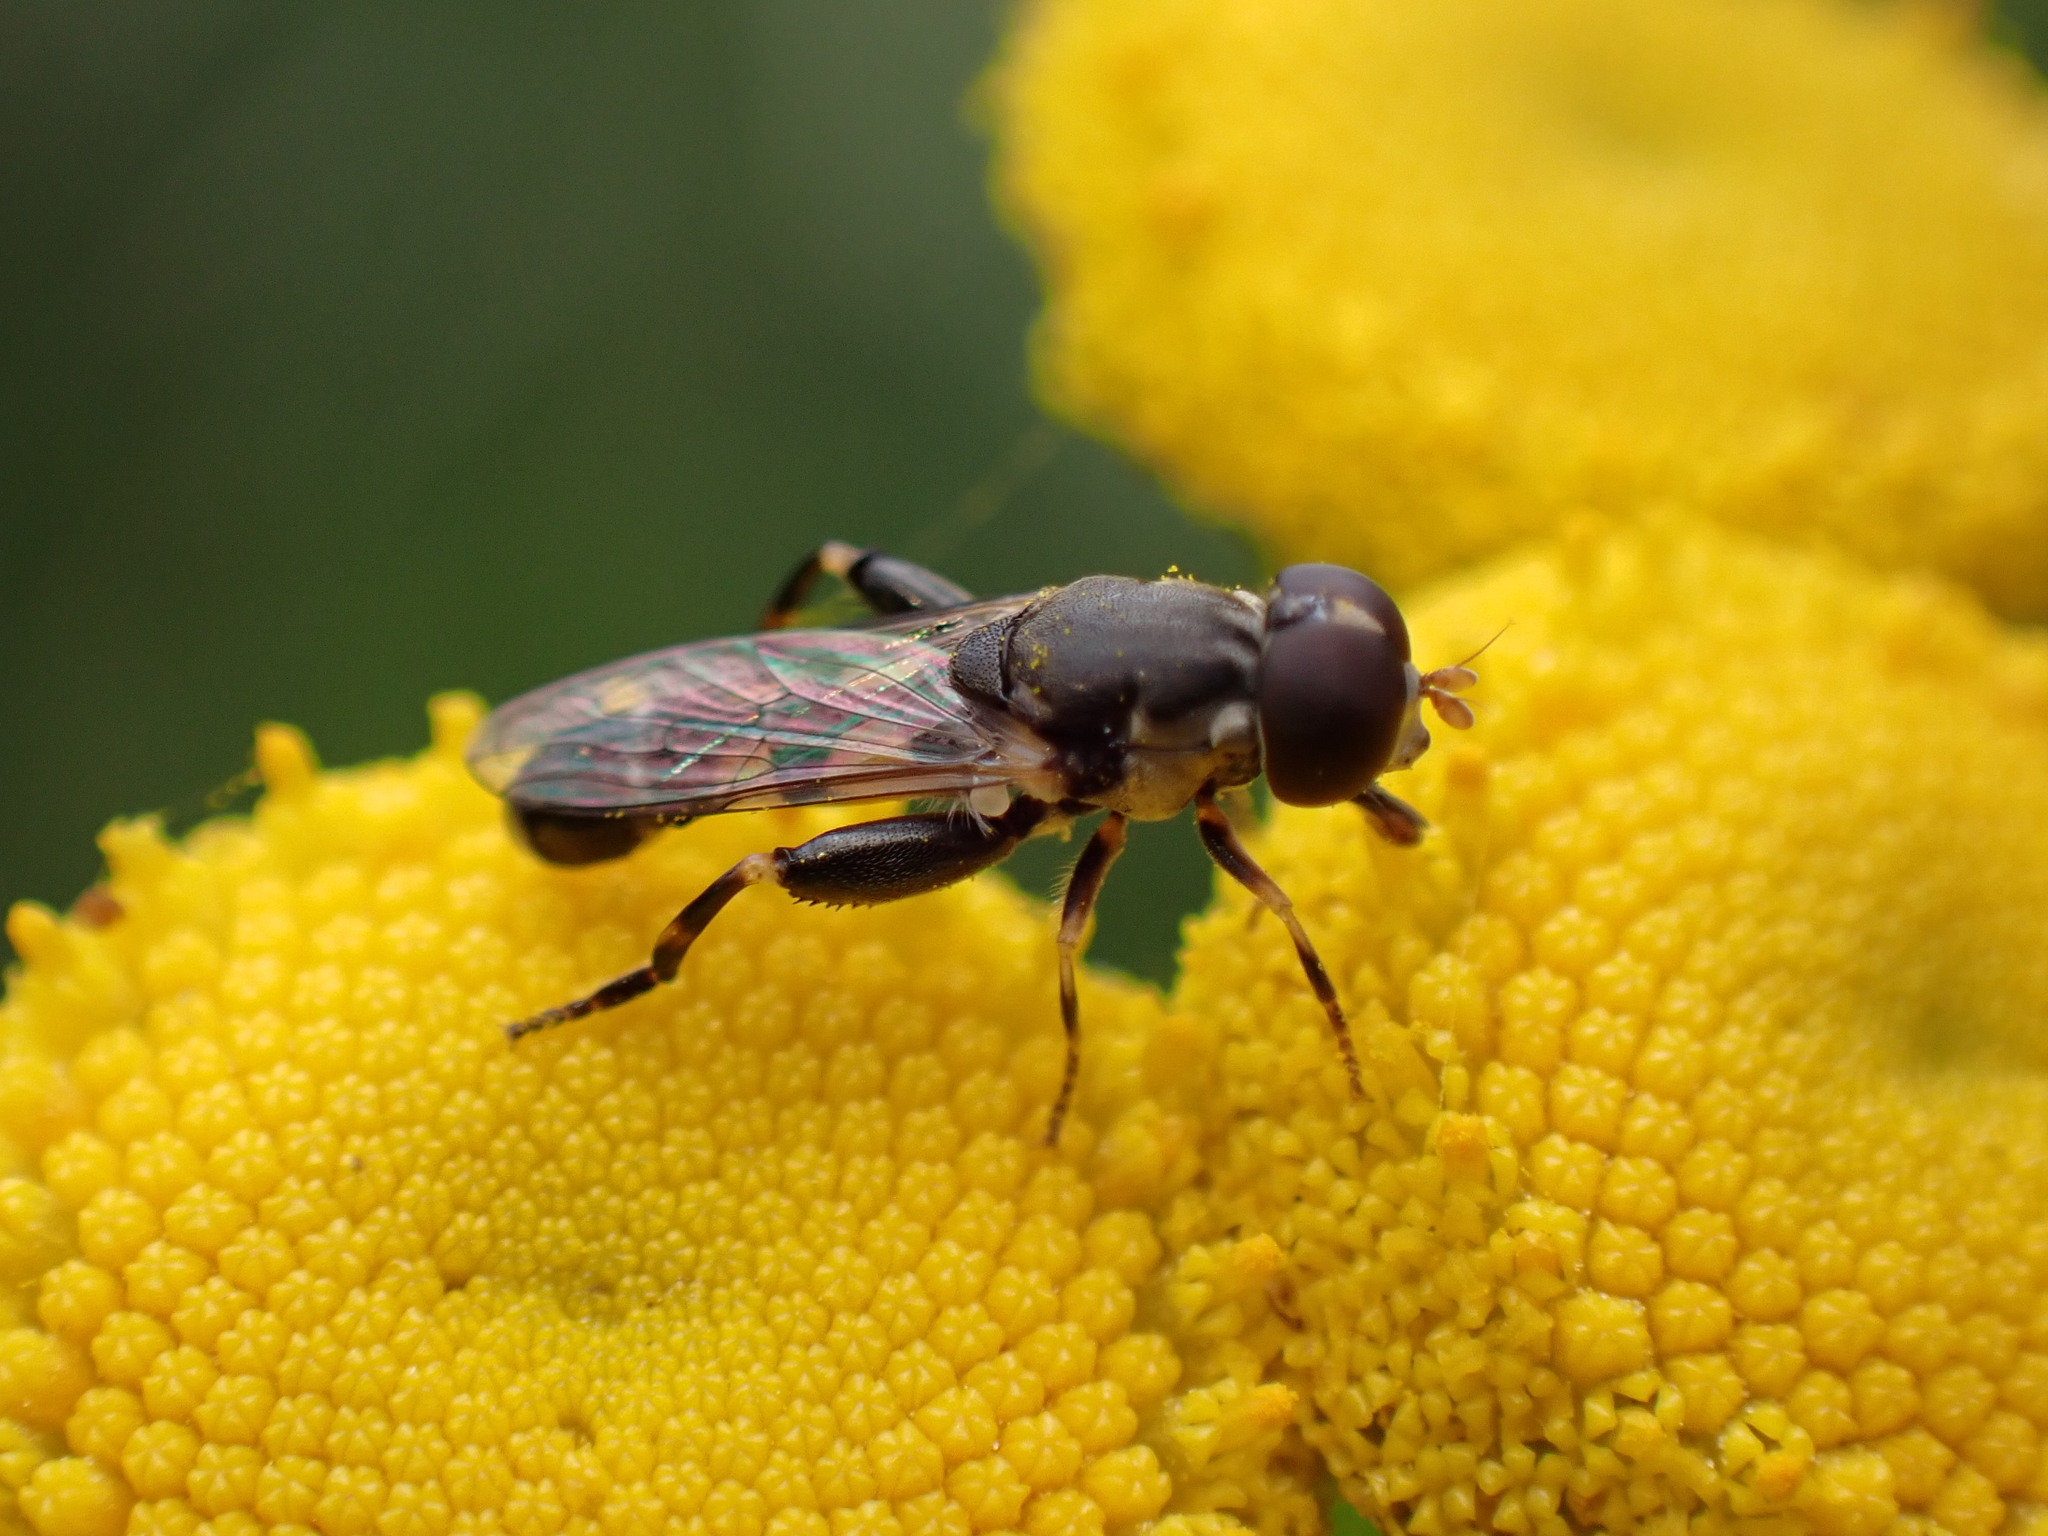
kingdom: Animalia
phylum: Arthropoda
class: Insecta
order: Diptera
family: Syrphidae
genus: Syritta
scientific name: Syritta pipiens
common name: Hover fly
